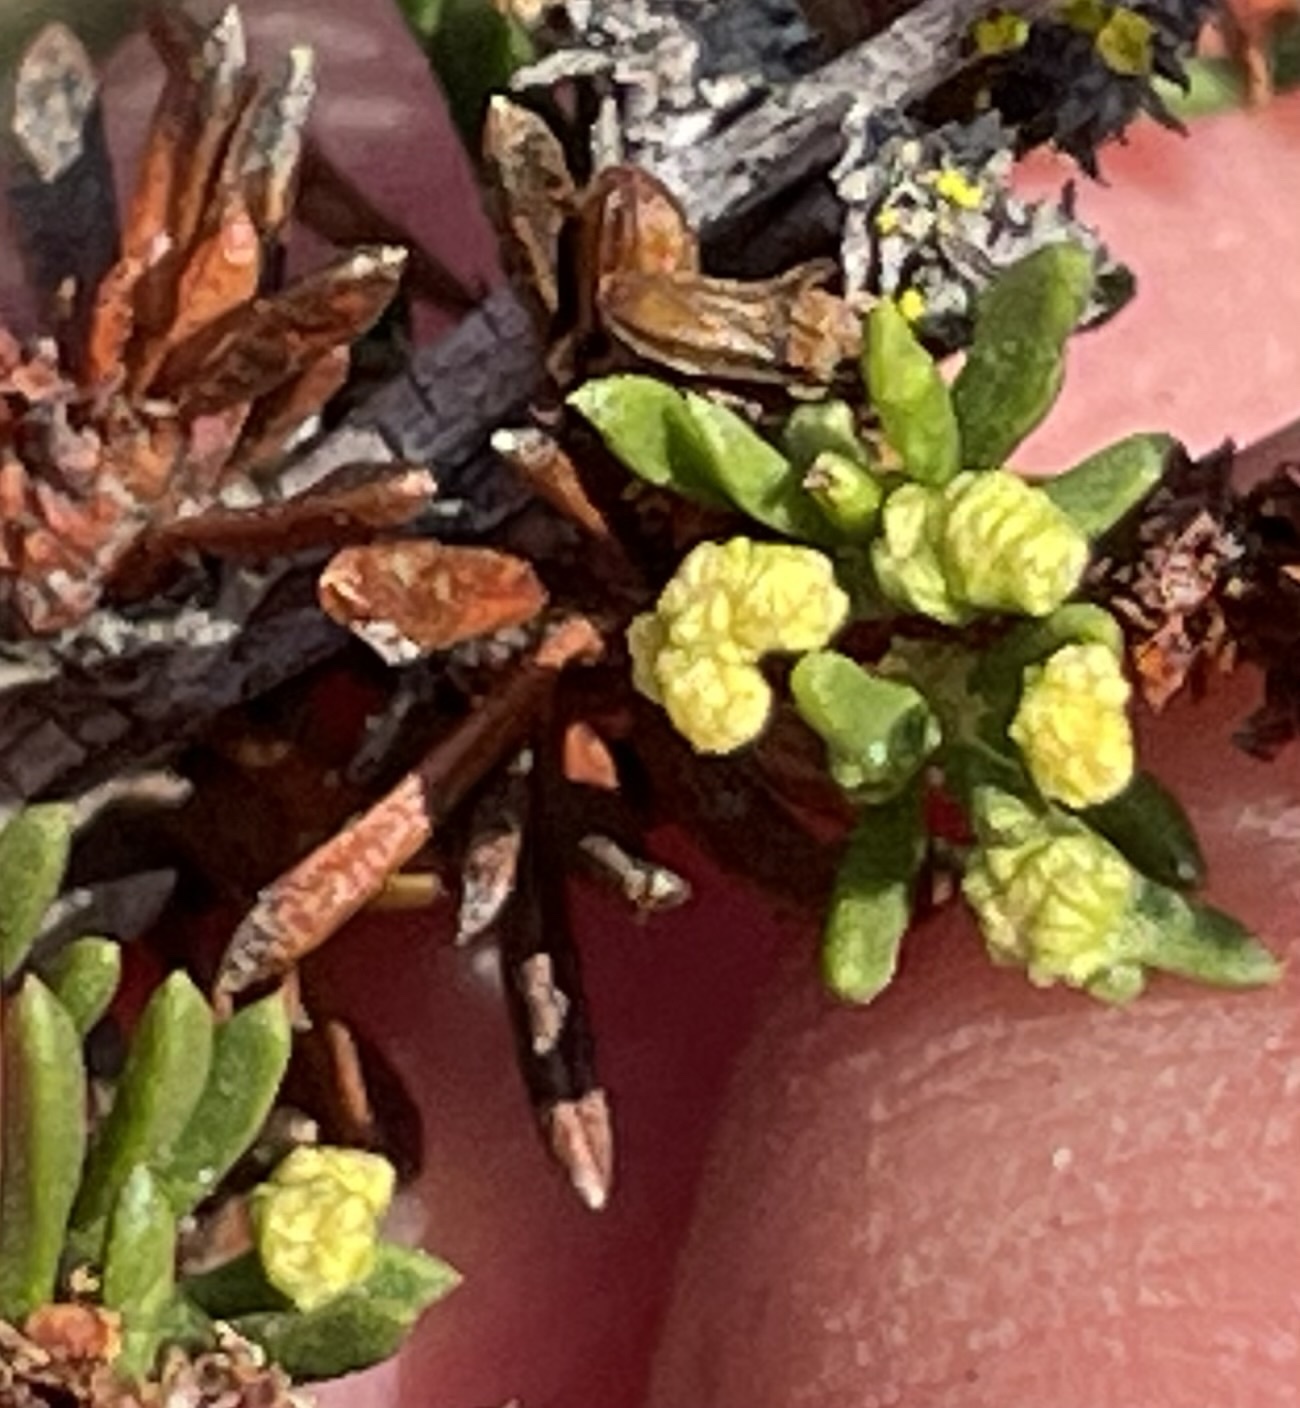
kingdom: Animalia
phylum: Arthropoda
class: Arachnida
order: Trombidiformes
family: Eriophyidae
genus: Eriophyes
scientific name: Eriophyes
